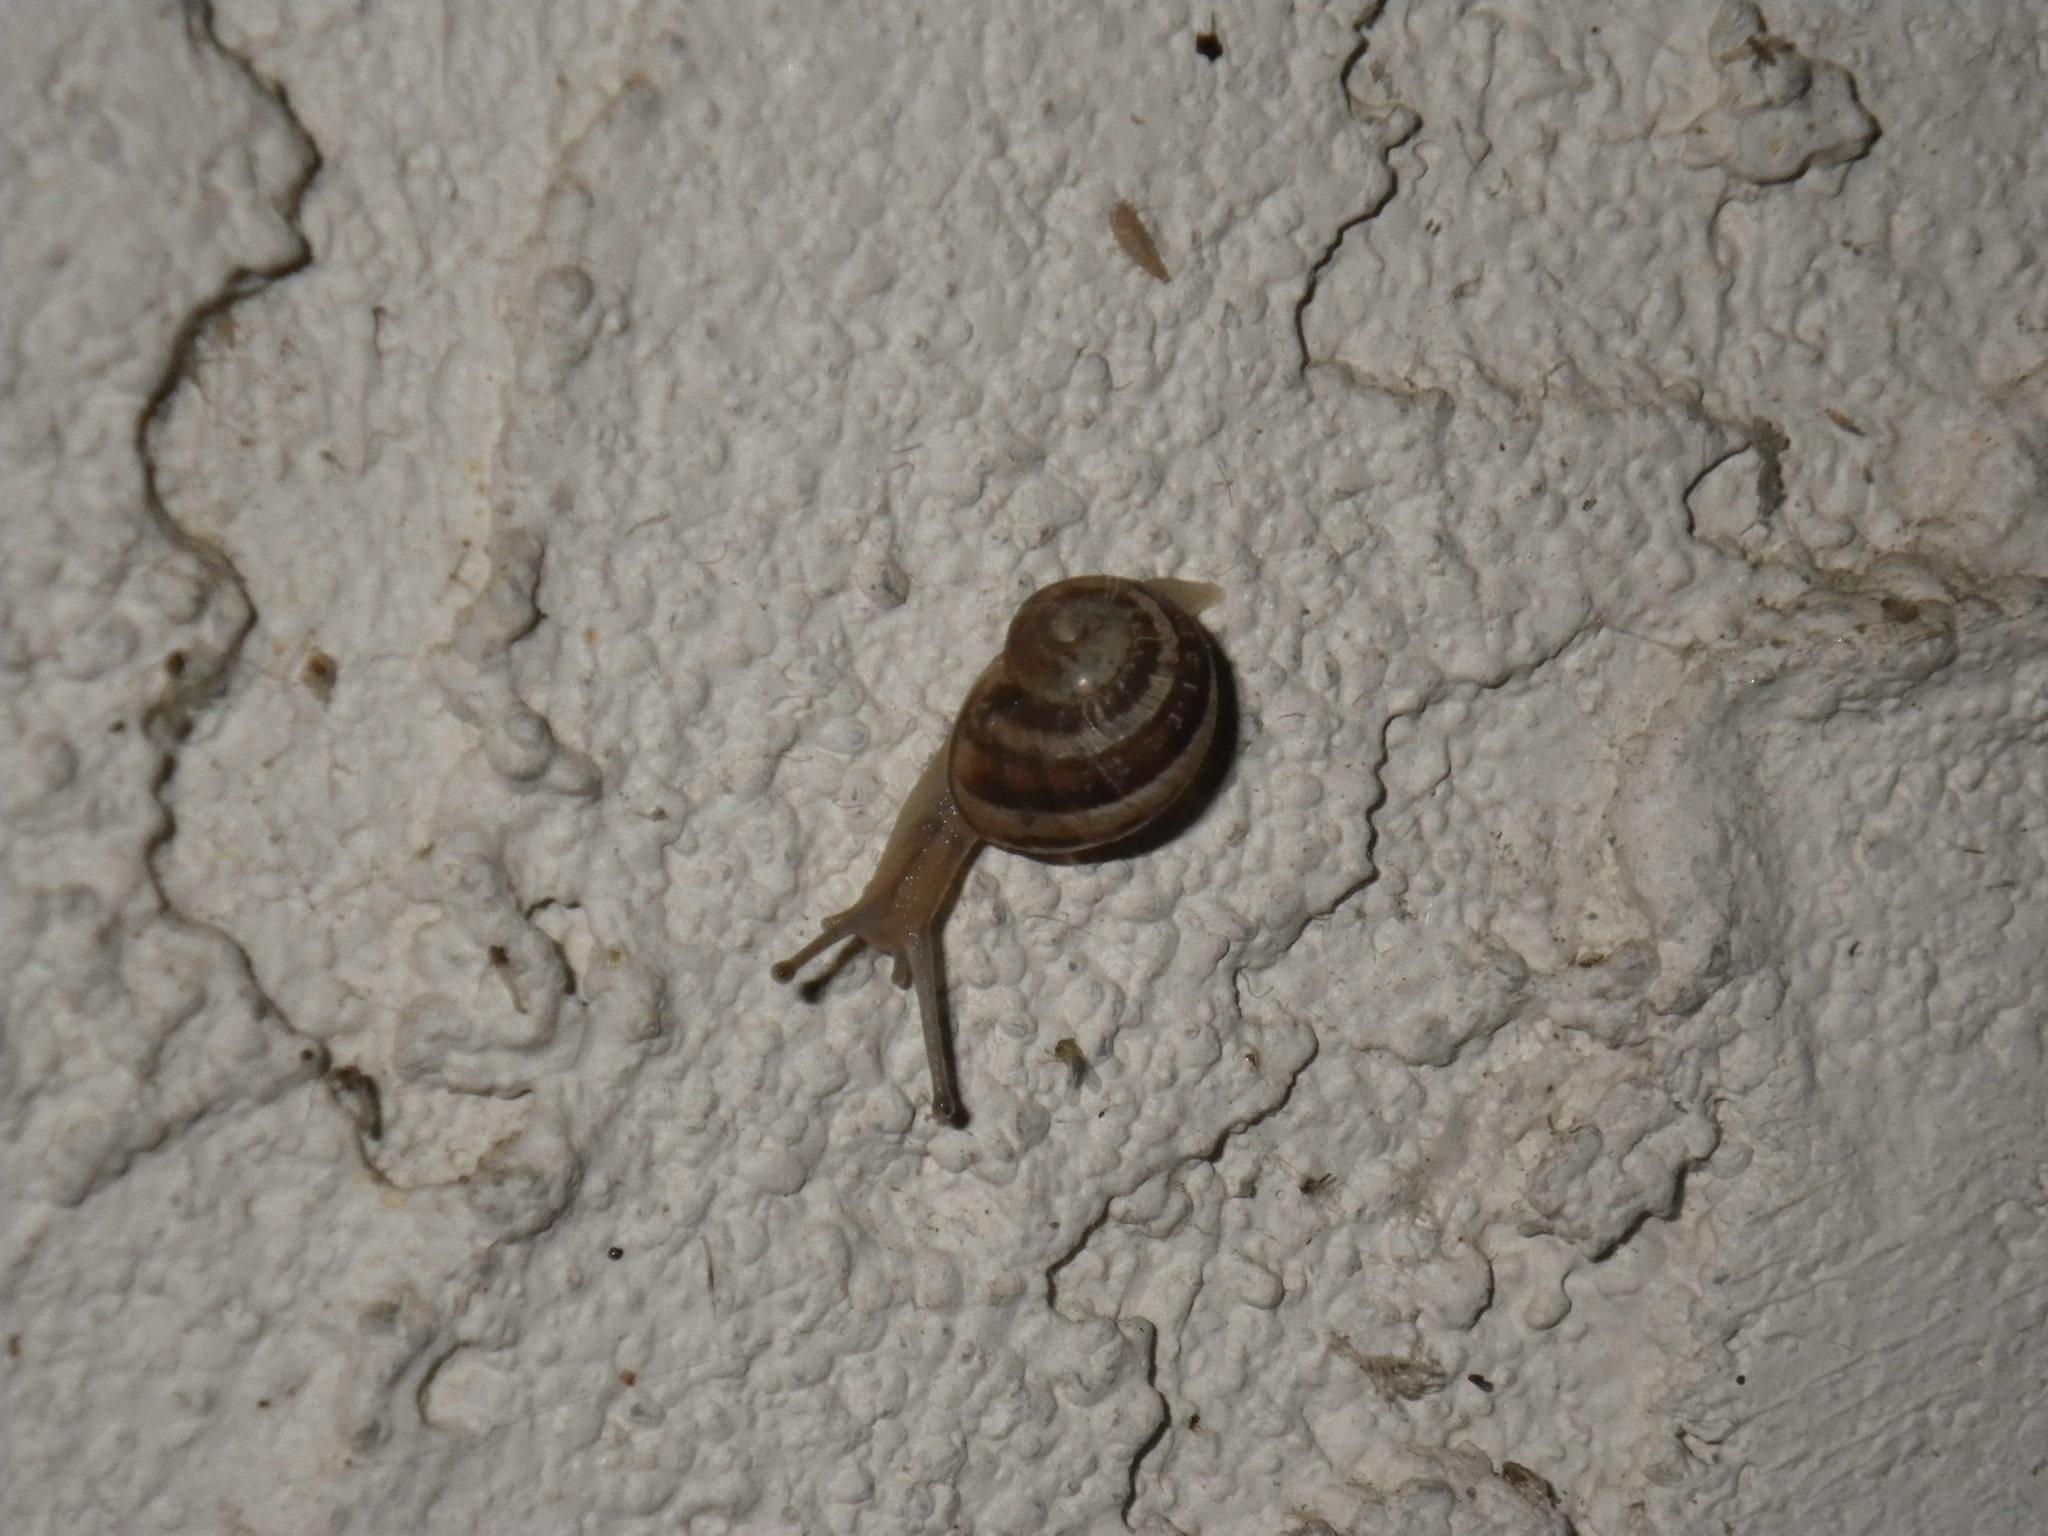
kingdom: Animalia
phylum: Mollusca
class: Gastropoda
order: Stylommatophora
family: Helicidae
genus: Cornu
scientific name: Cornu aspersum
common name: Brown garden snail
